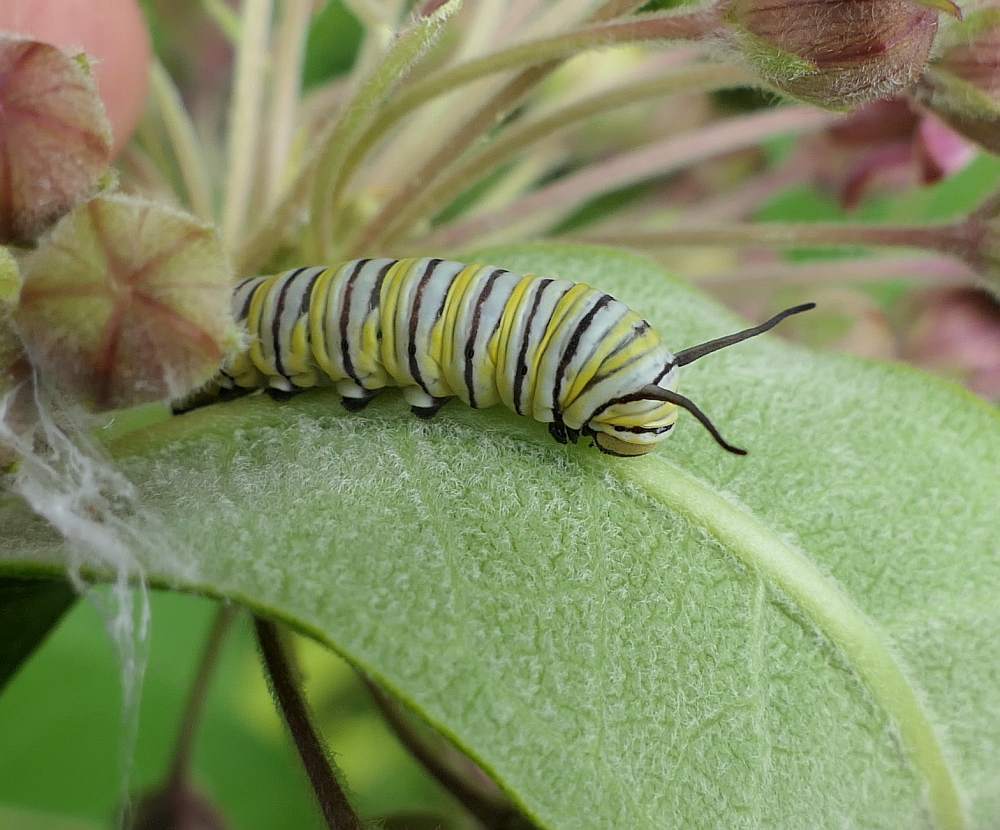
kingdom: Animalia
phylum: Arthropoda
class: Insecta
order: Lepidoptera
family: Nymphalidae
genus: Danaus
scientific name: Danaus plexippus
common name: Monarch
